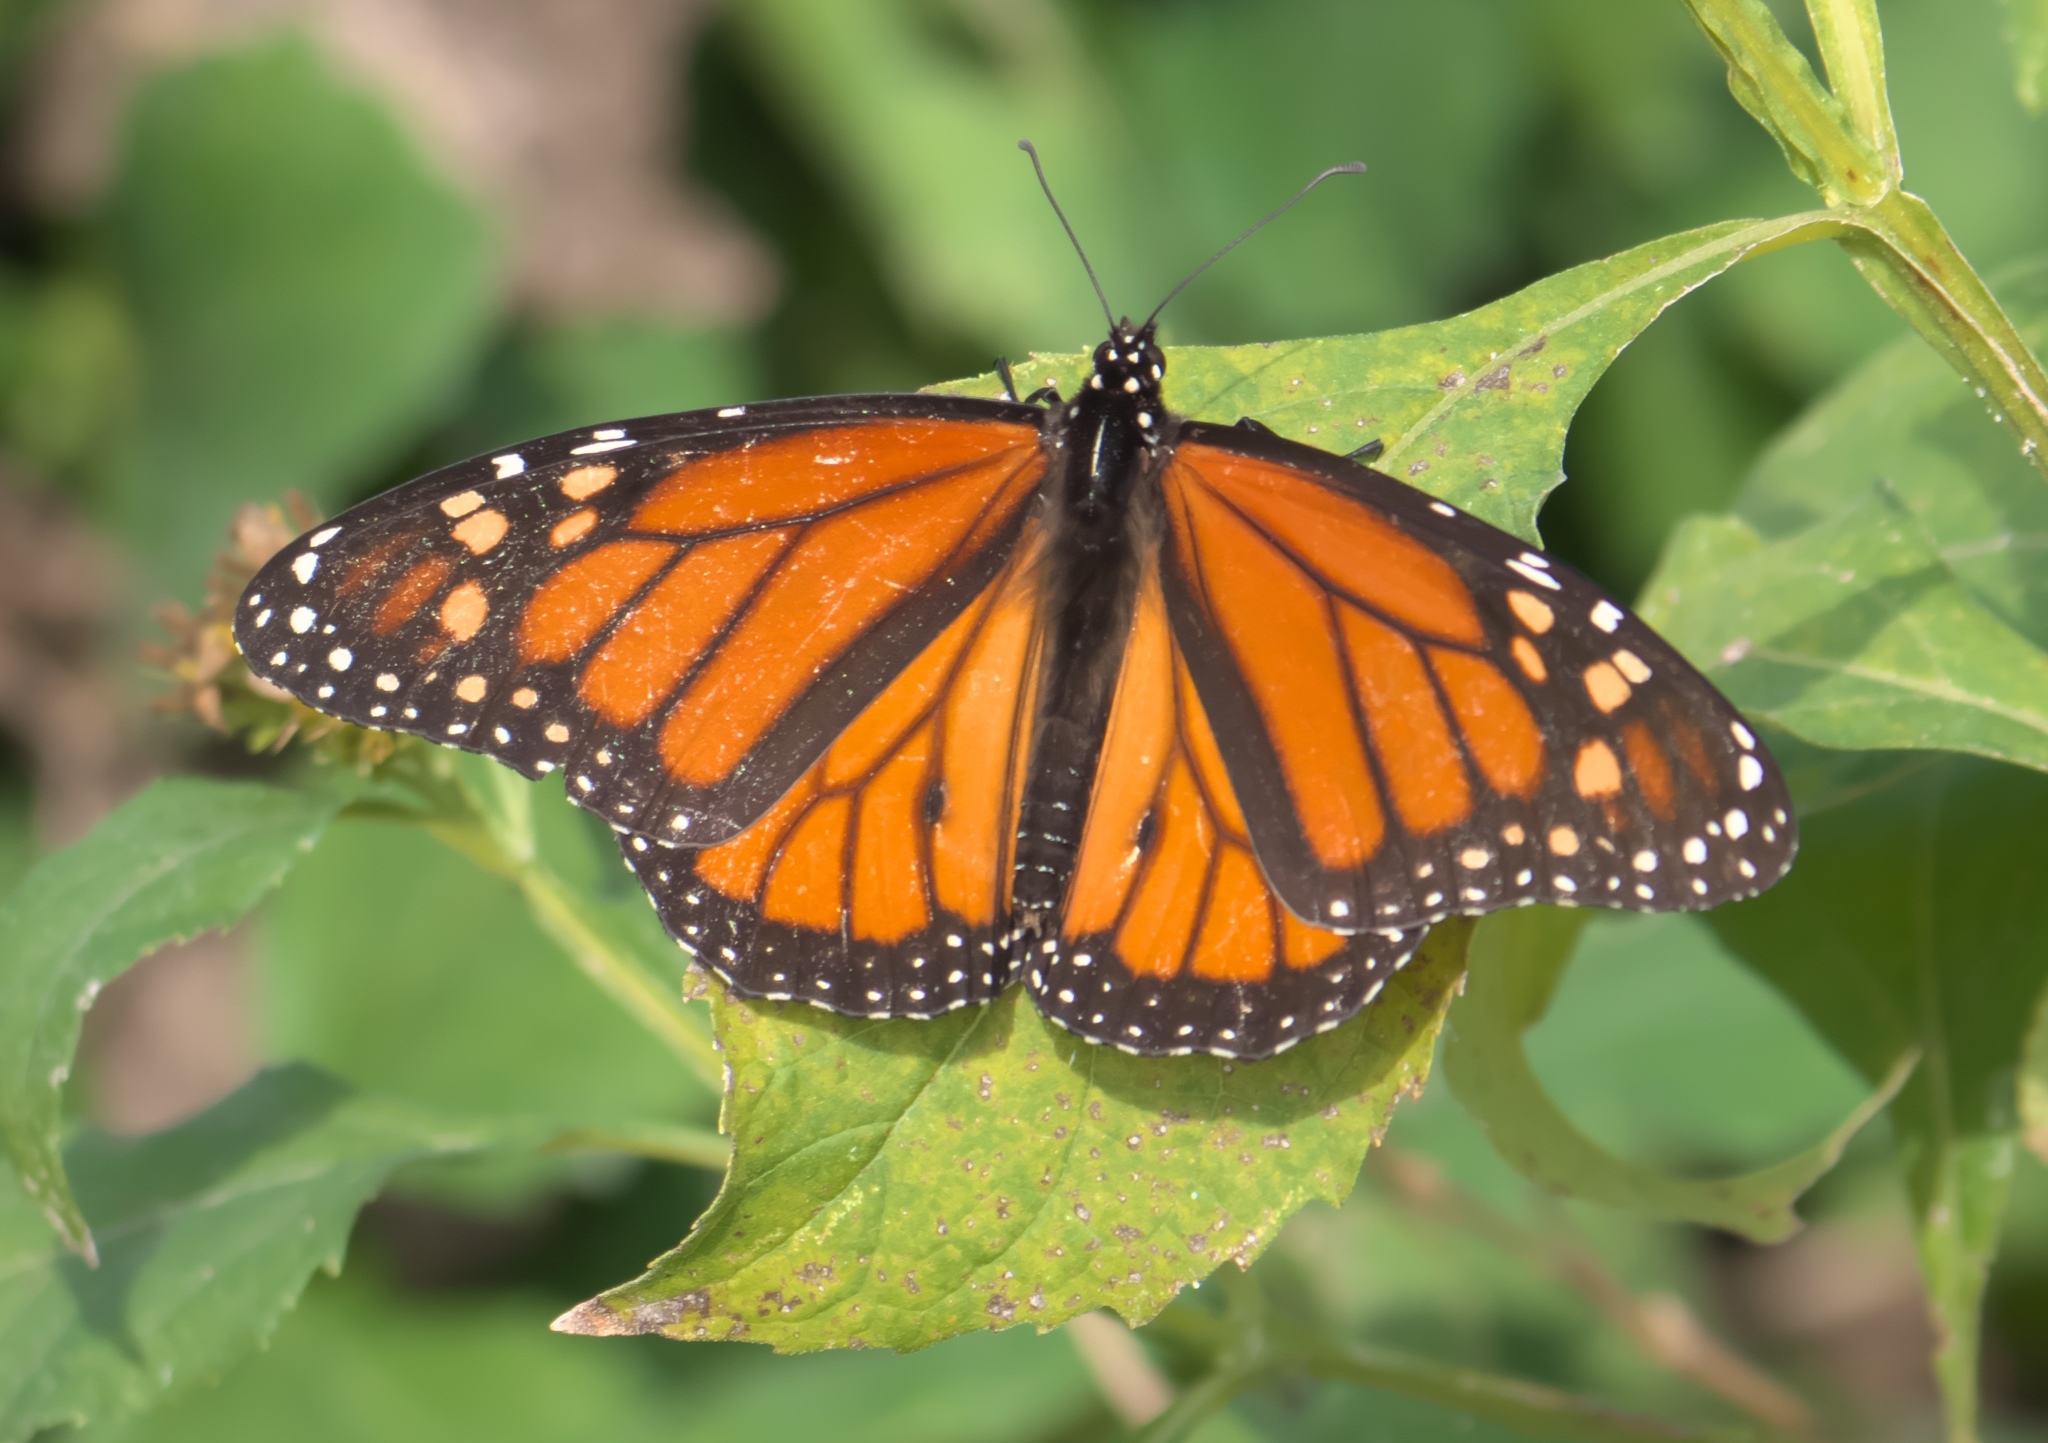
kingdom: Animalia
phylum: Arthropoda
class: Insecta
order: Lepidoptera
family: Nymphalidae
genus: Danaus
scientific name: Danaus plexippus
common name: Monarch
